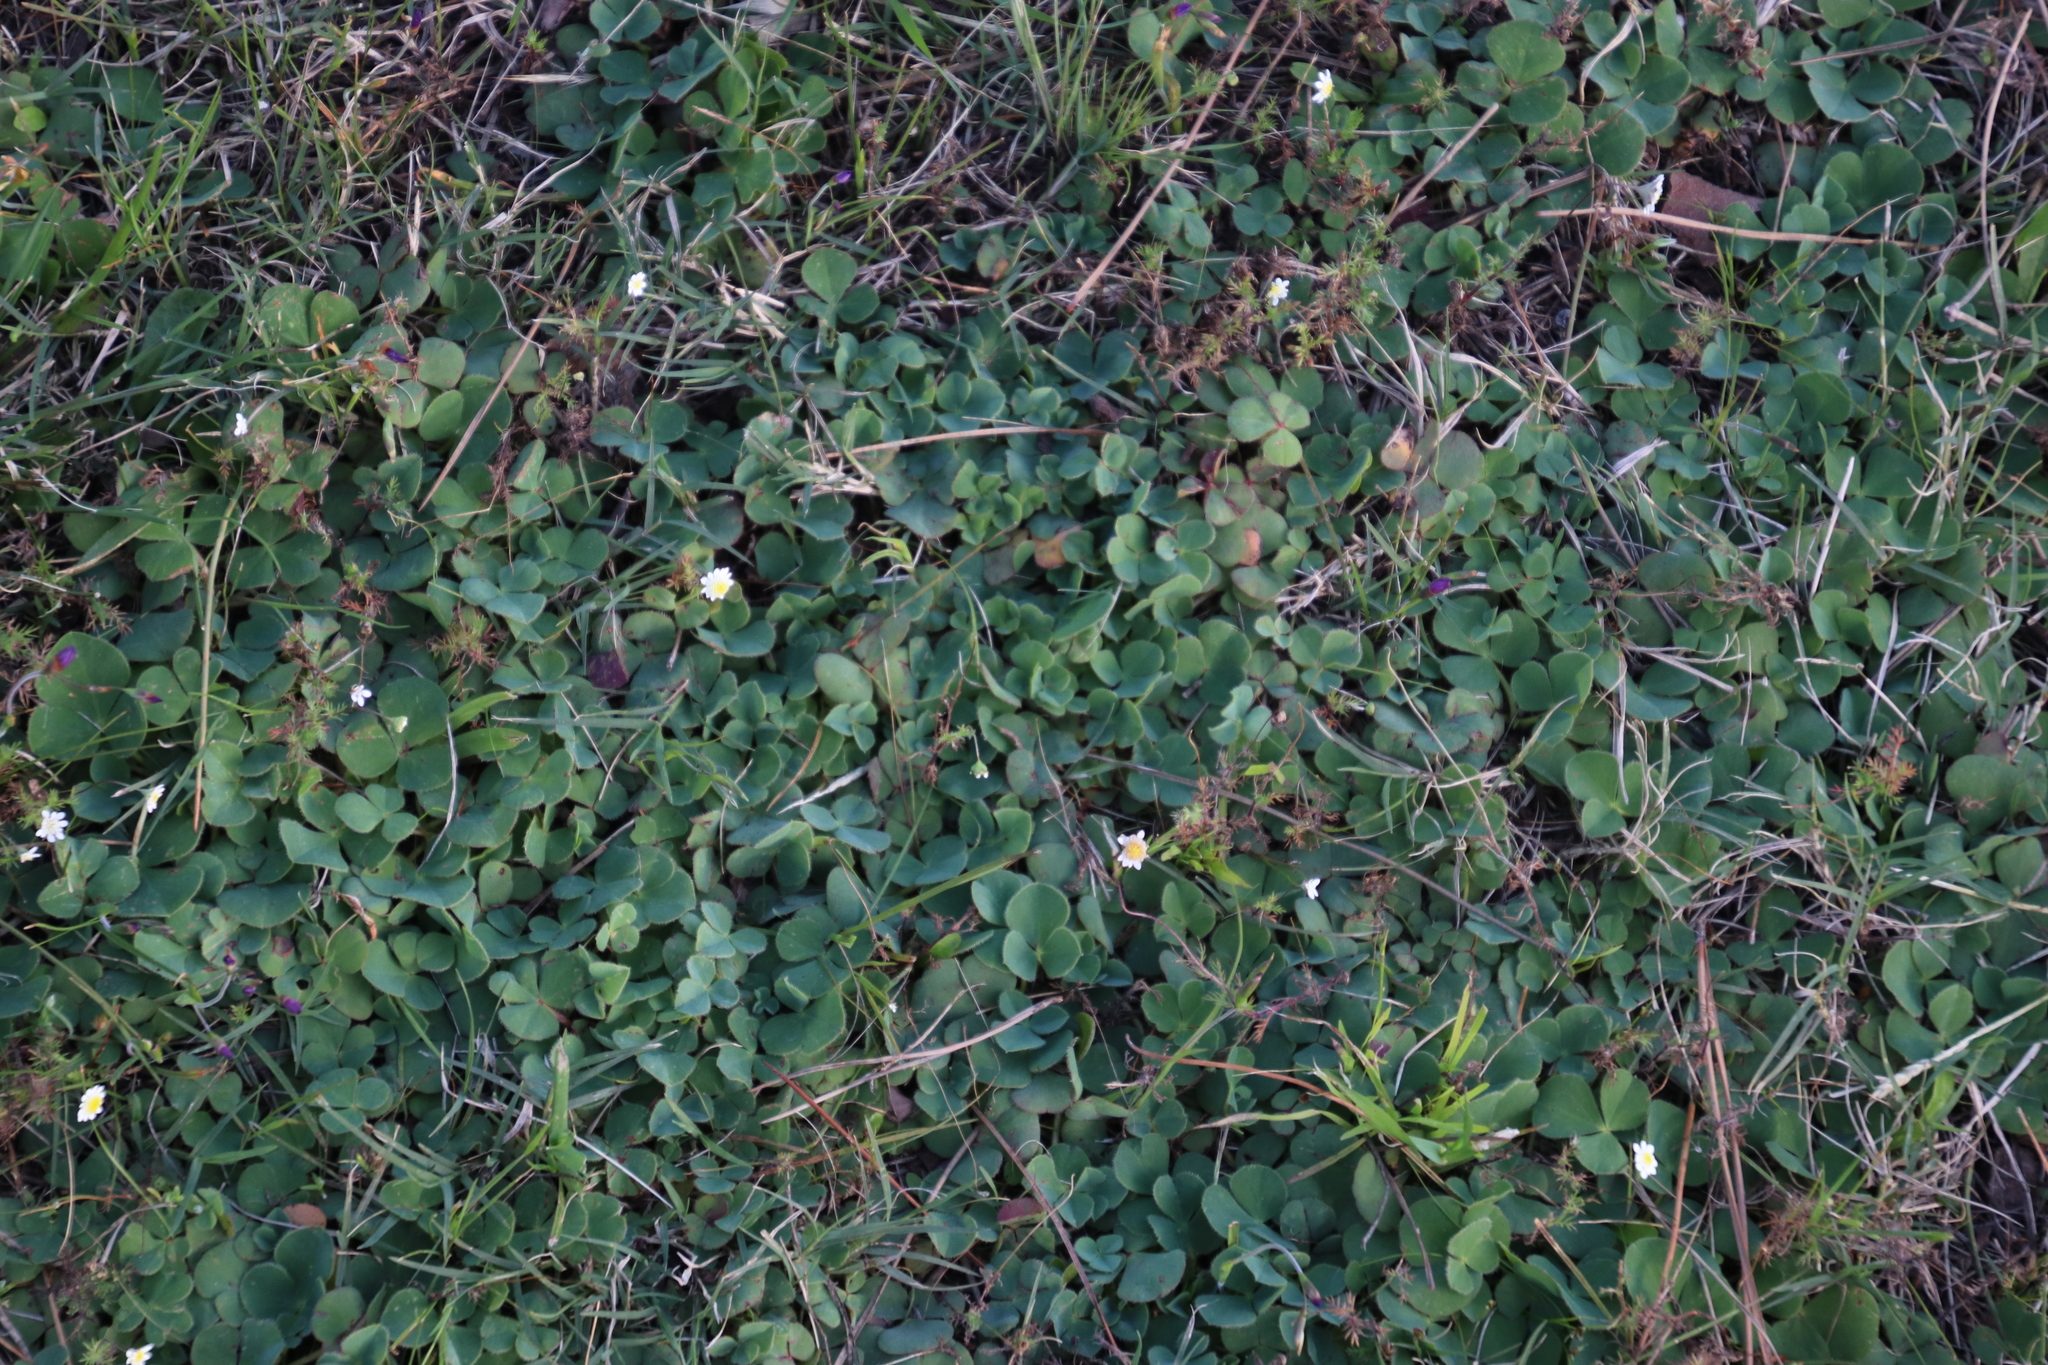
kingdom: Plantae
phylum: Tracheophyta
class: Magnoliopsida
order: Oxalidales
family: Oxalidaceae
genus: Oxalis
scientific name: Oxalis purpurea
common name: Purple woodsorrel
